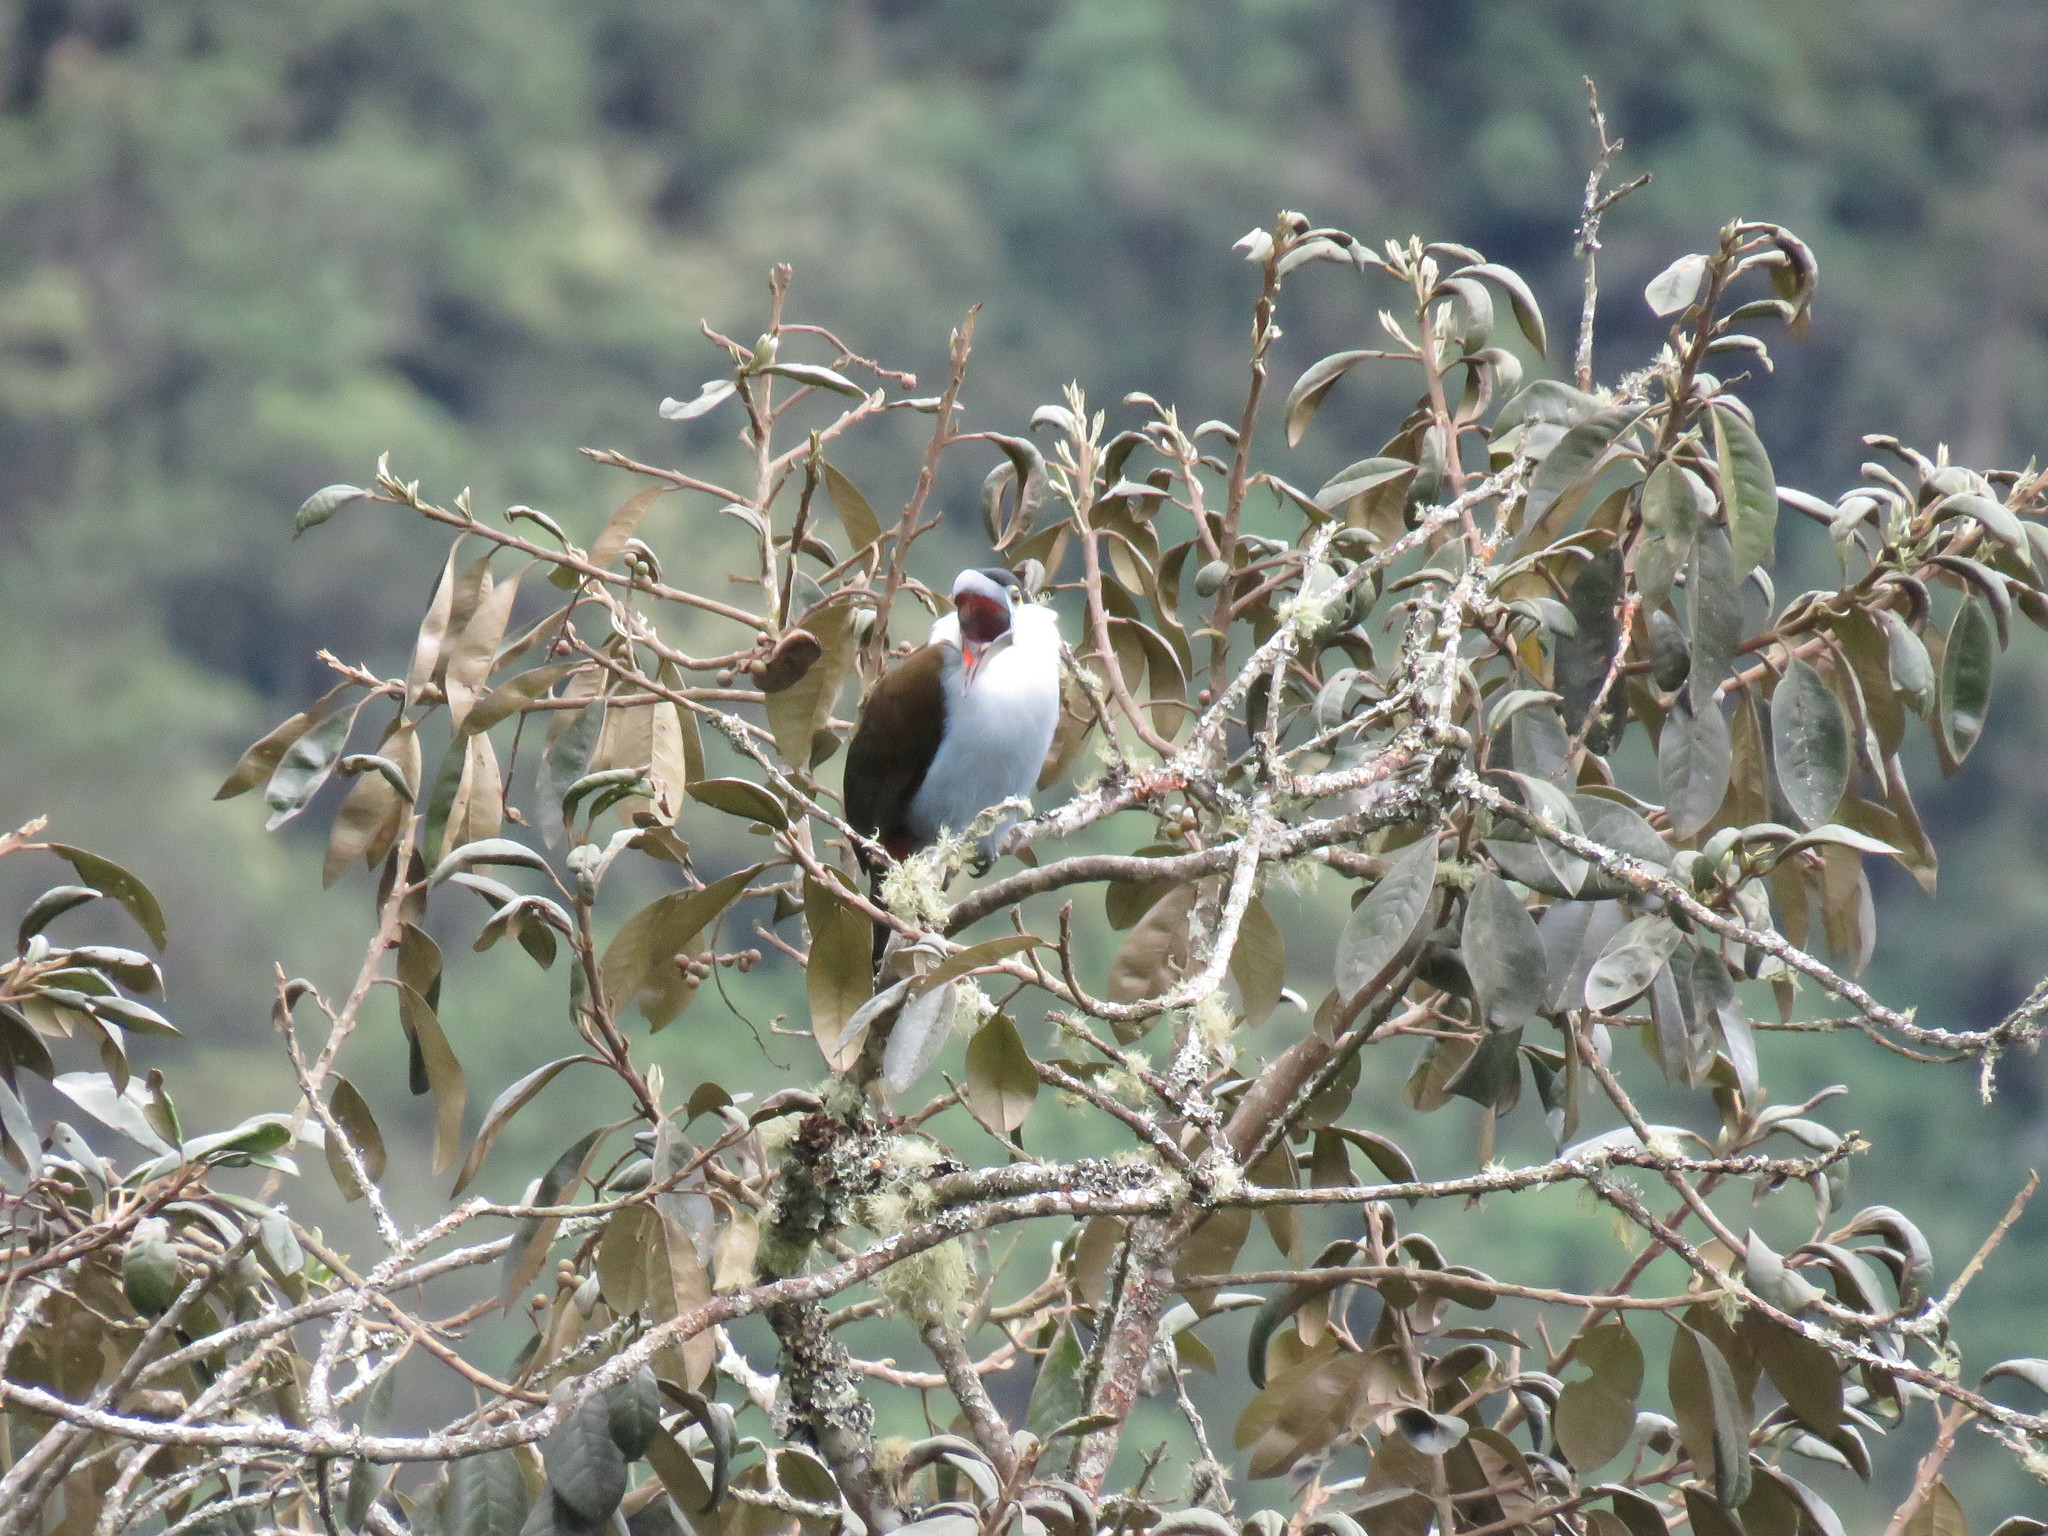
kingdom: Animalia
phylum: Chordata
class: Aves
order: Piciformes
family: Ramphastidae
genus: Andigena
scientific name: Andigena nigrirostris
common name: Black-billed mountain toucan
